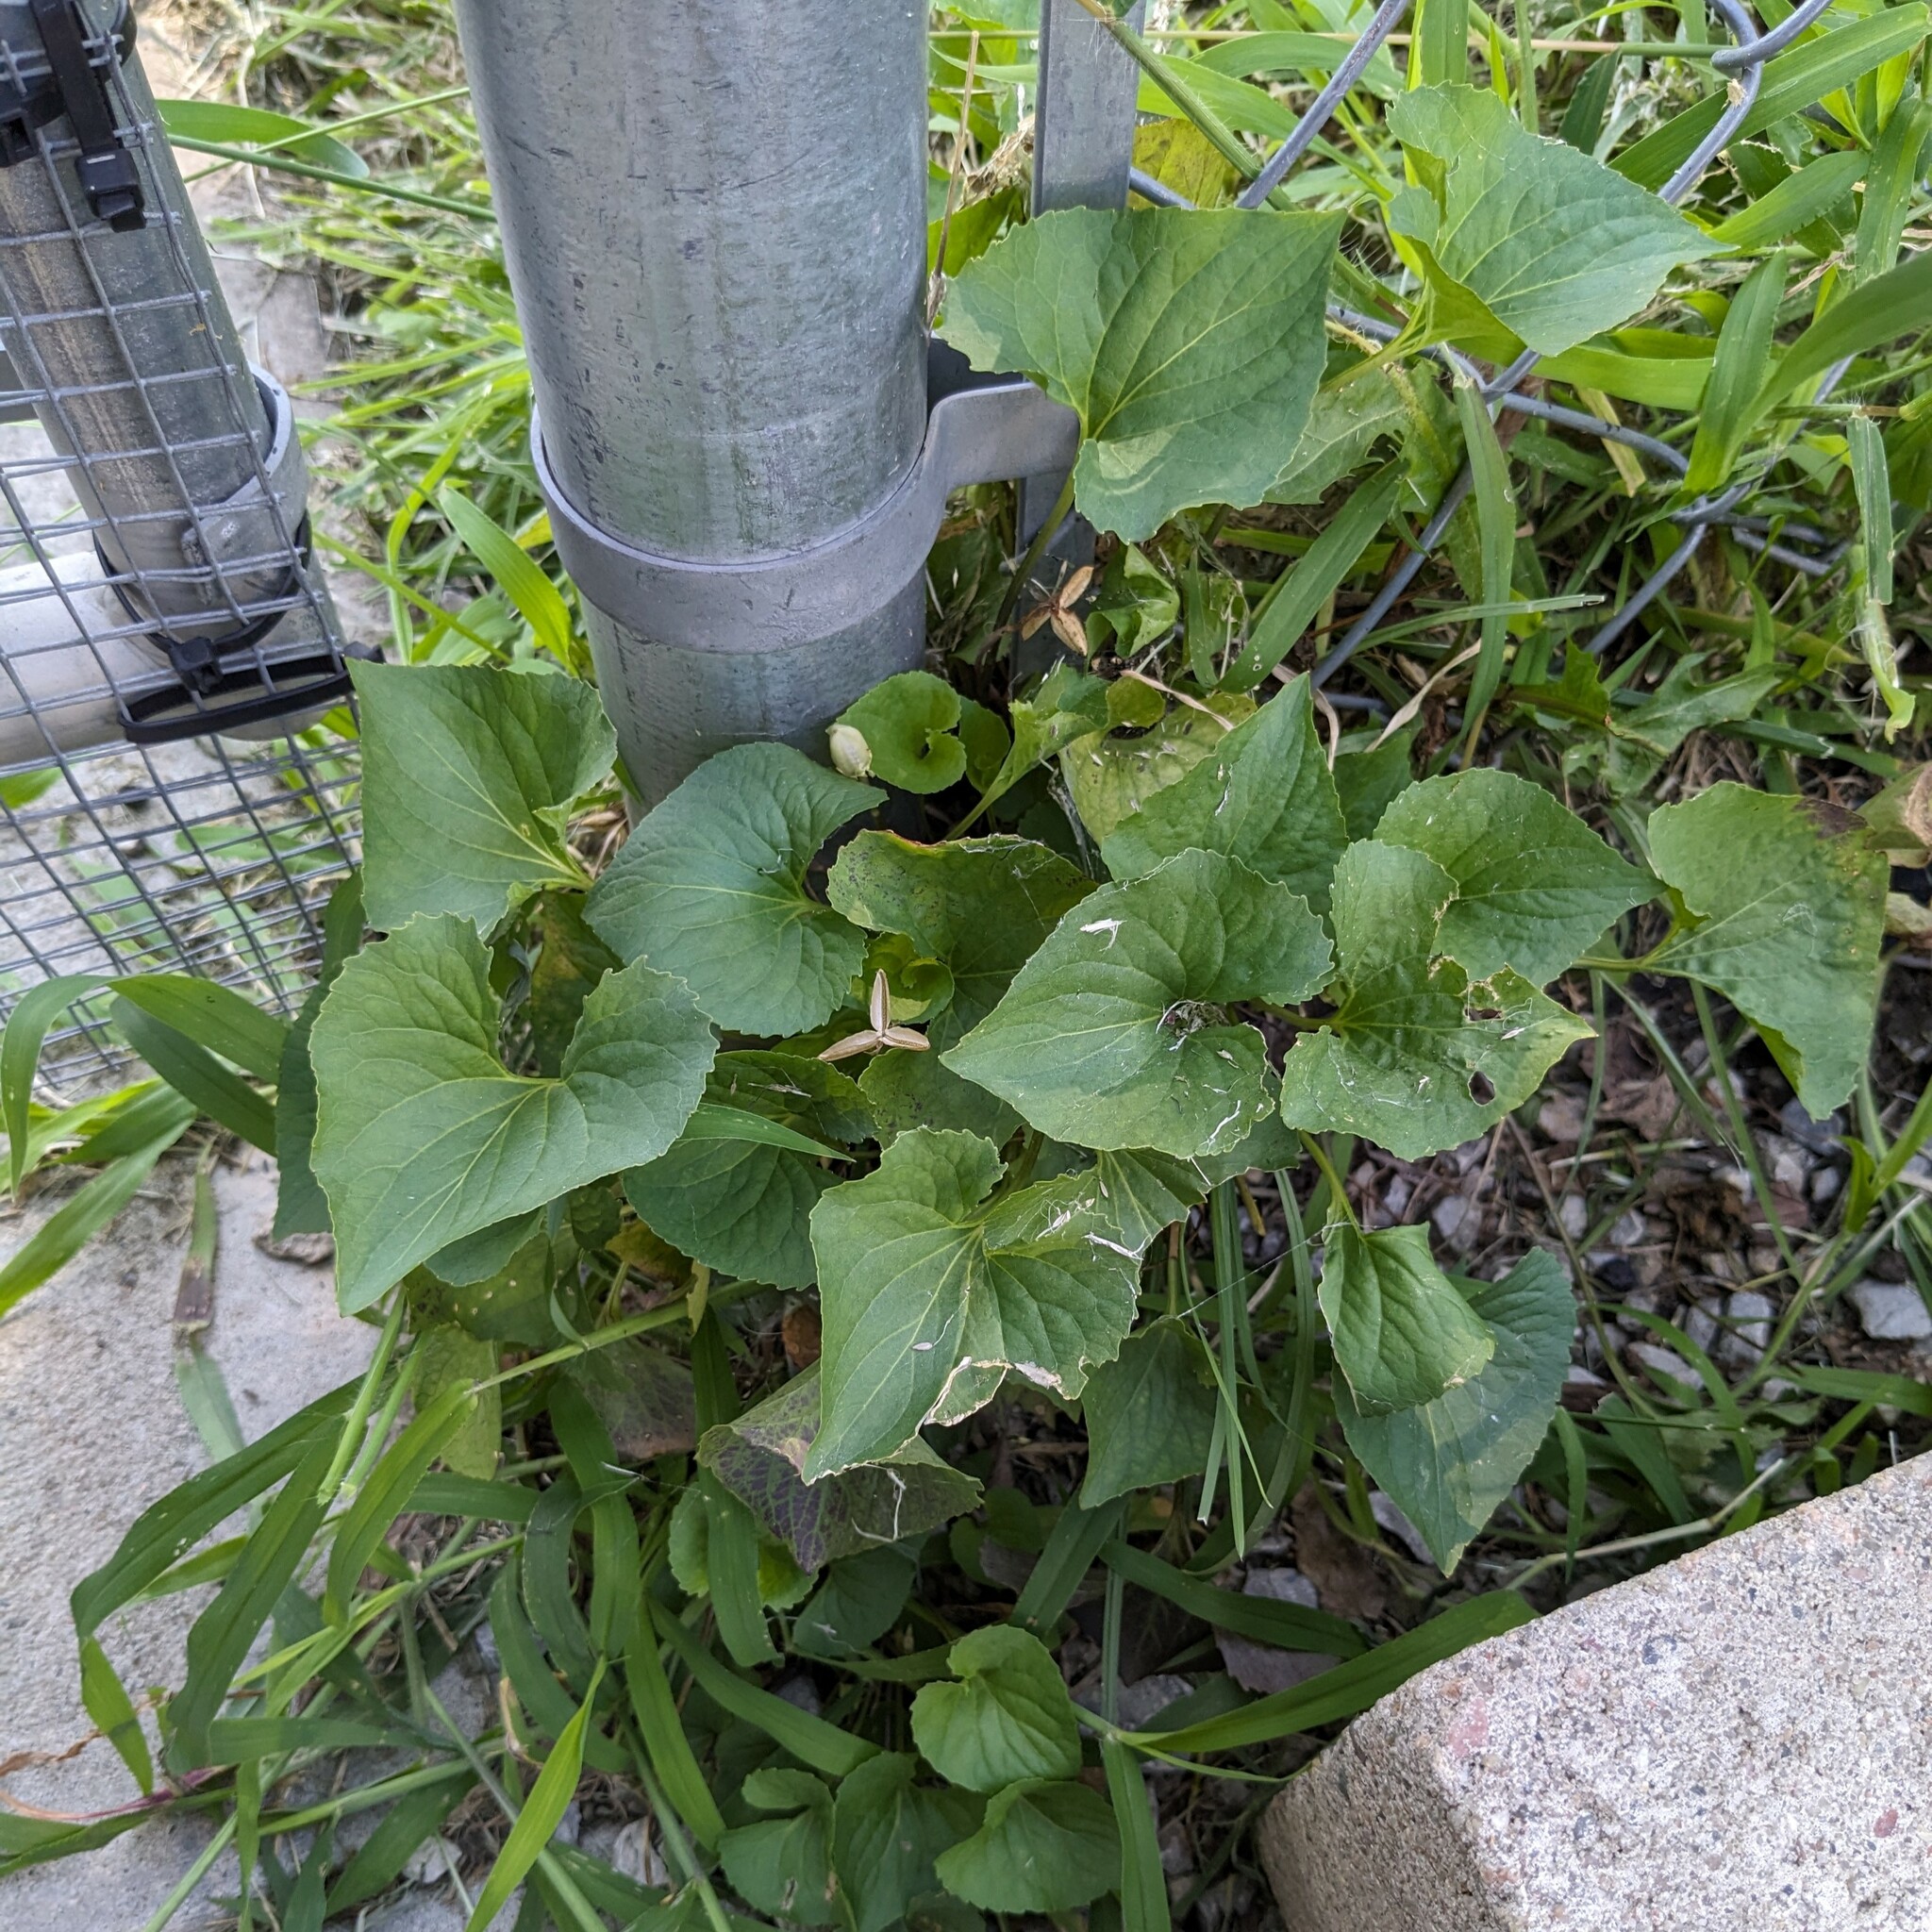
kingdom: Plantae
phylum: Tracheophyta
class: Magnoliopsida
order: Malpighiales
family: Violaceae
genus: Viola
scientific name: Viola sororia
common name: Dooryard violet
